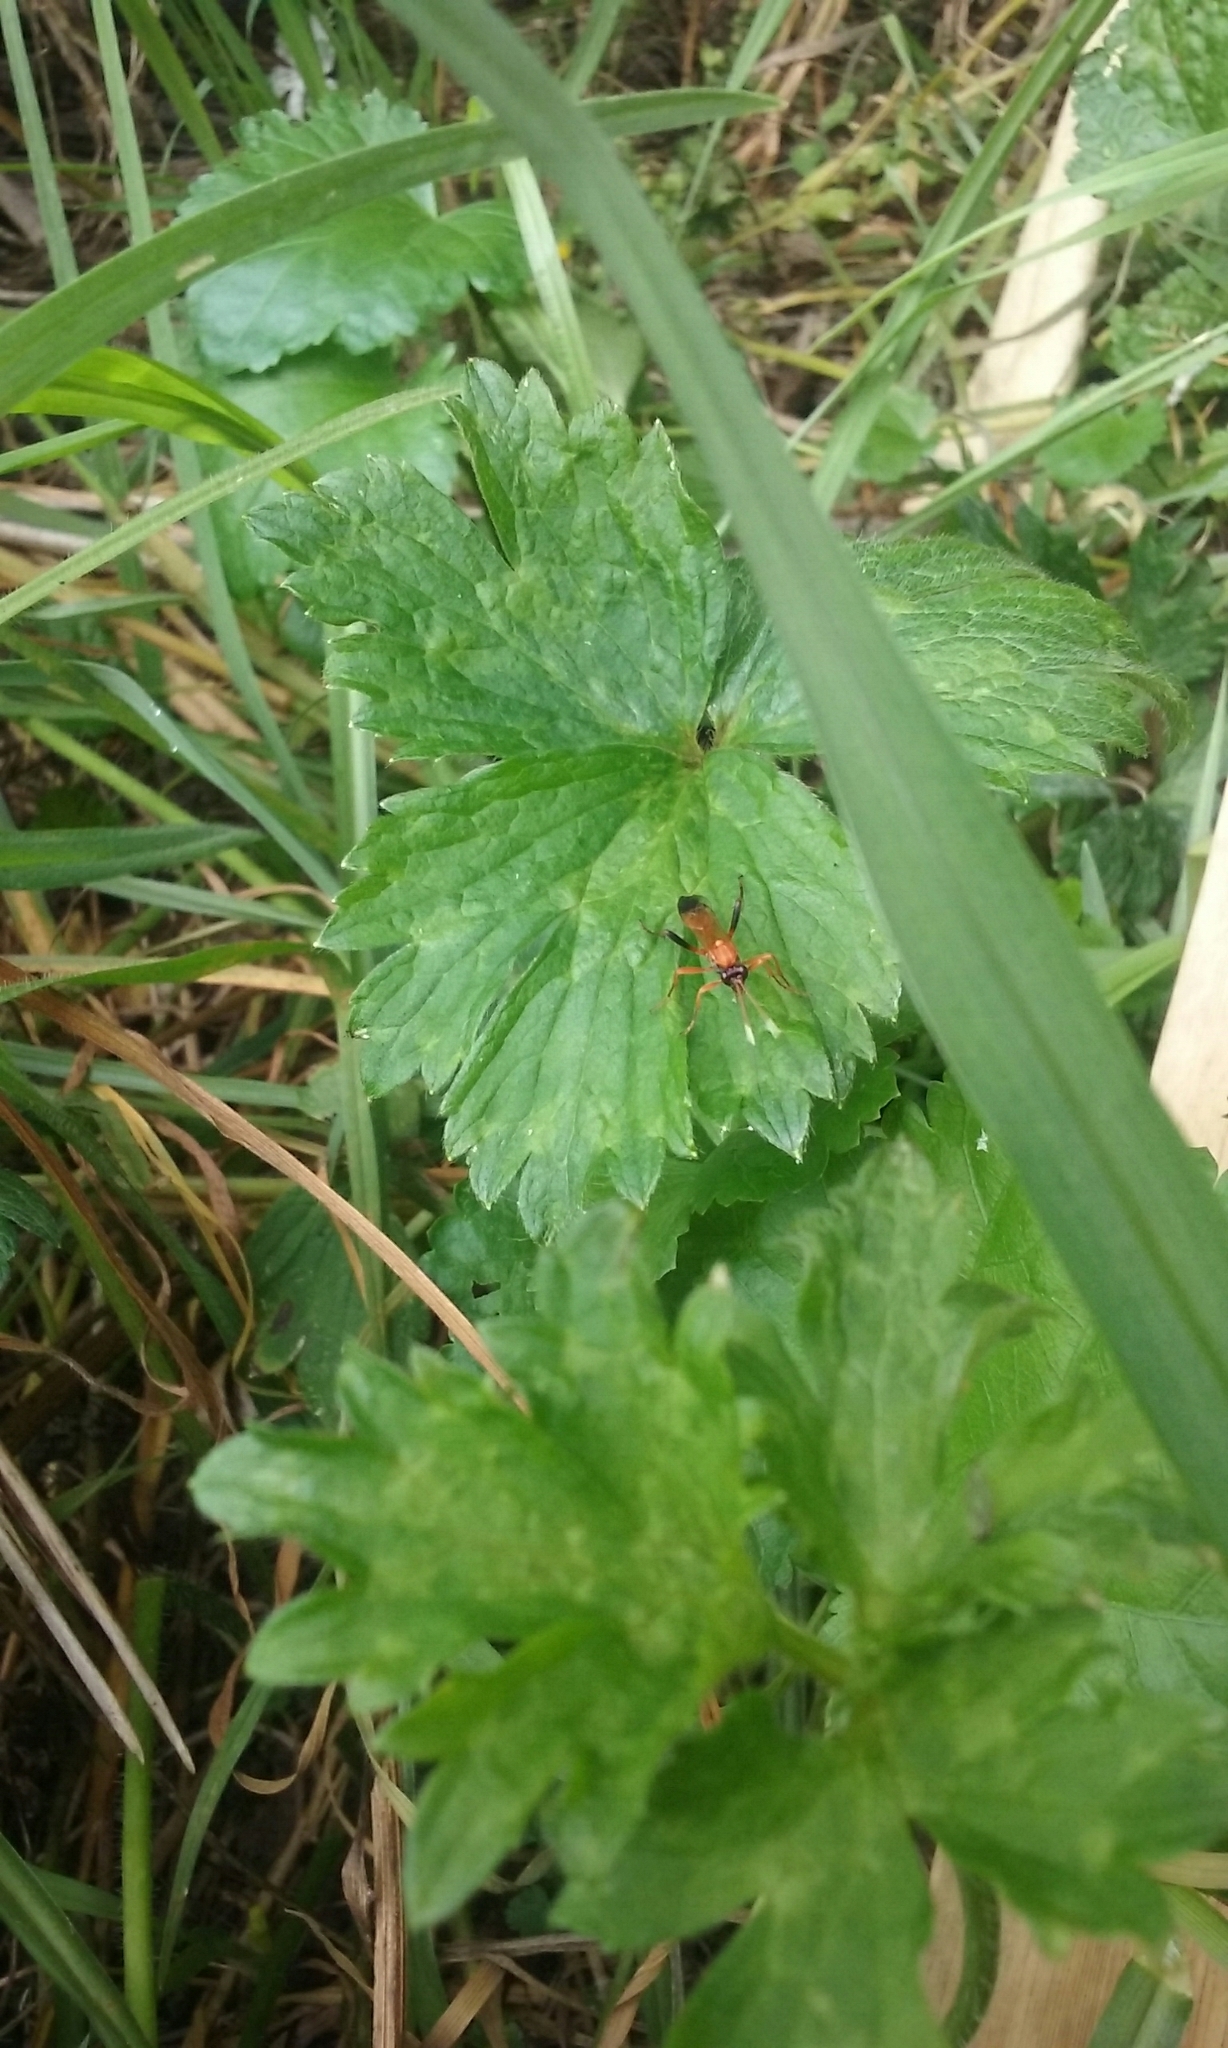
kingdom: Animalia
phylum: Arthropoda
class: Insecta
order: Hymenoptera
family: Ichneumonidae
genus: Ctenochares
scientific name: Ctenochares bicolorus
